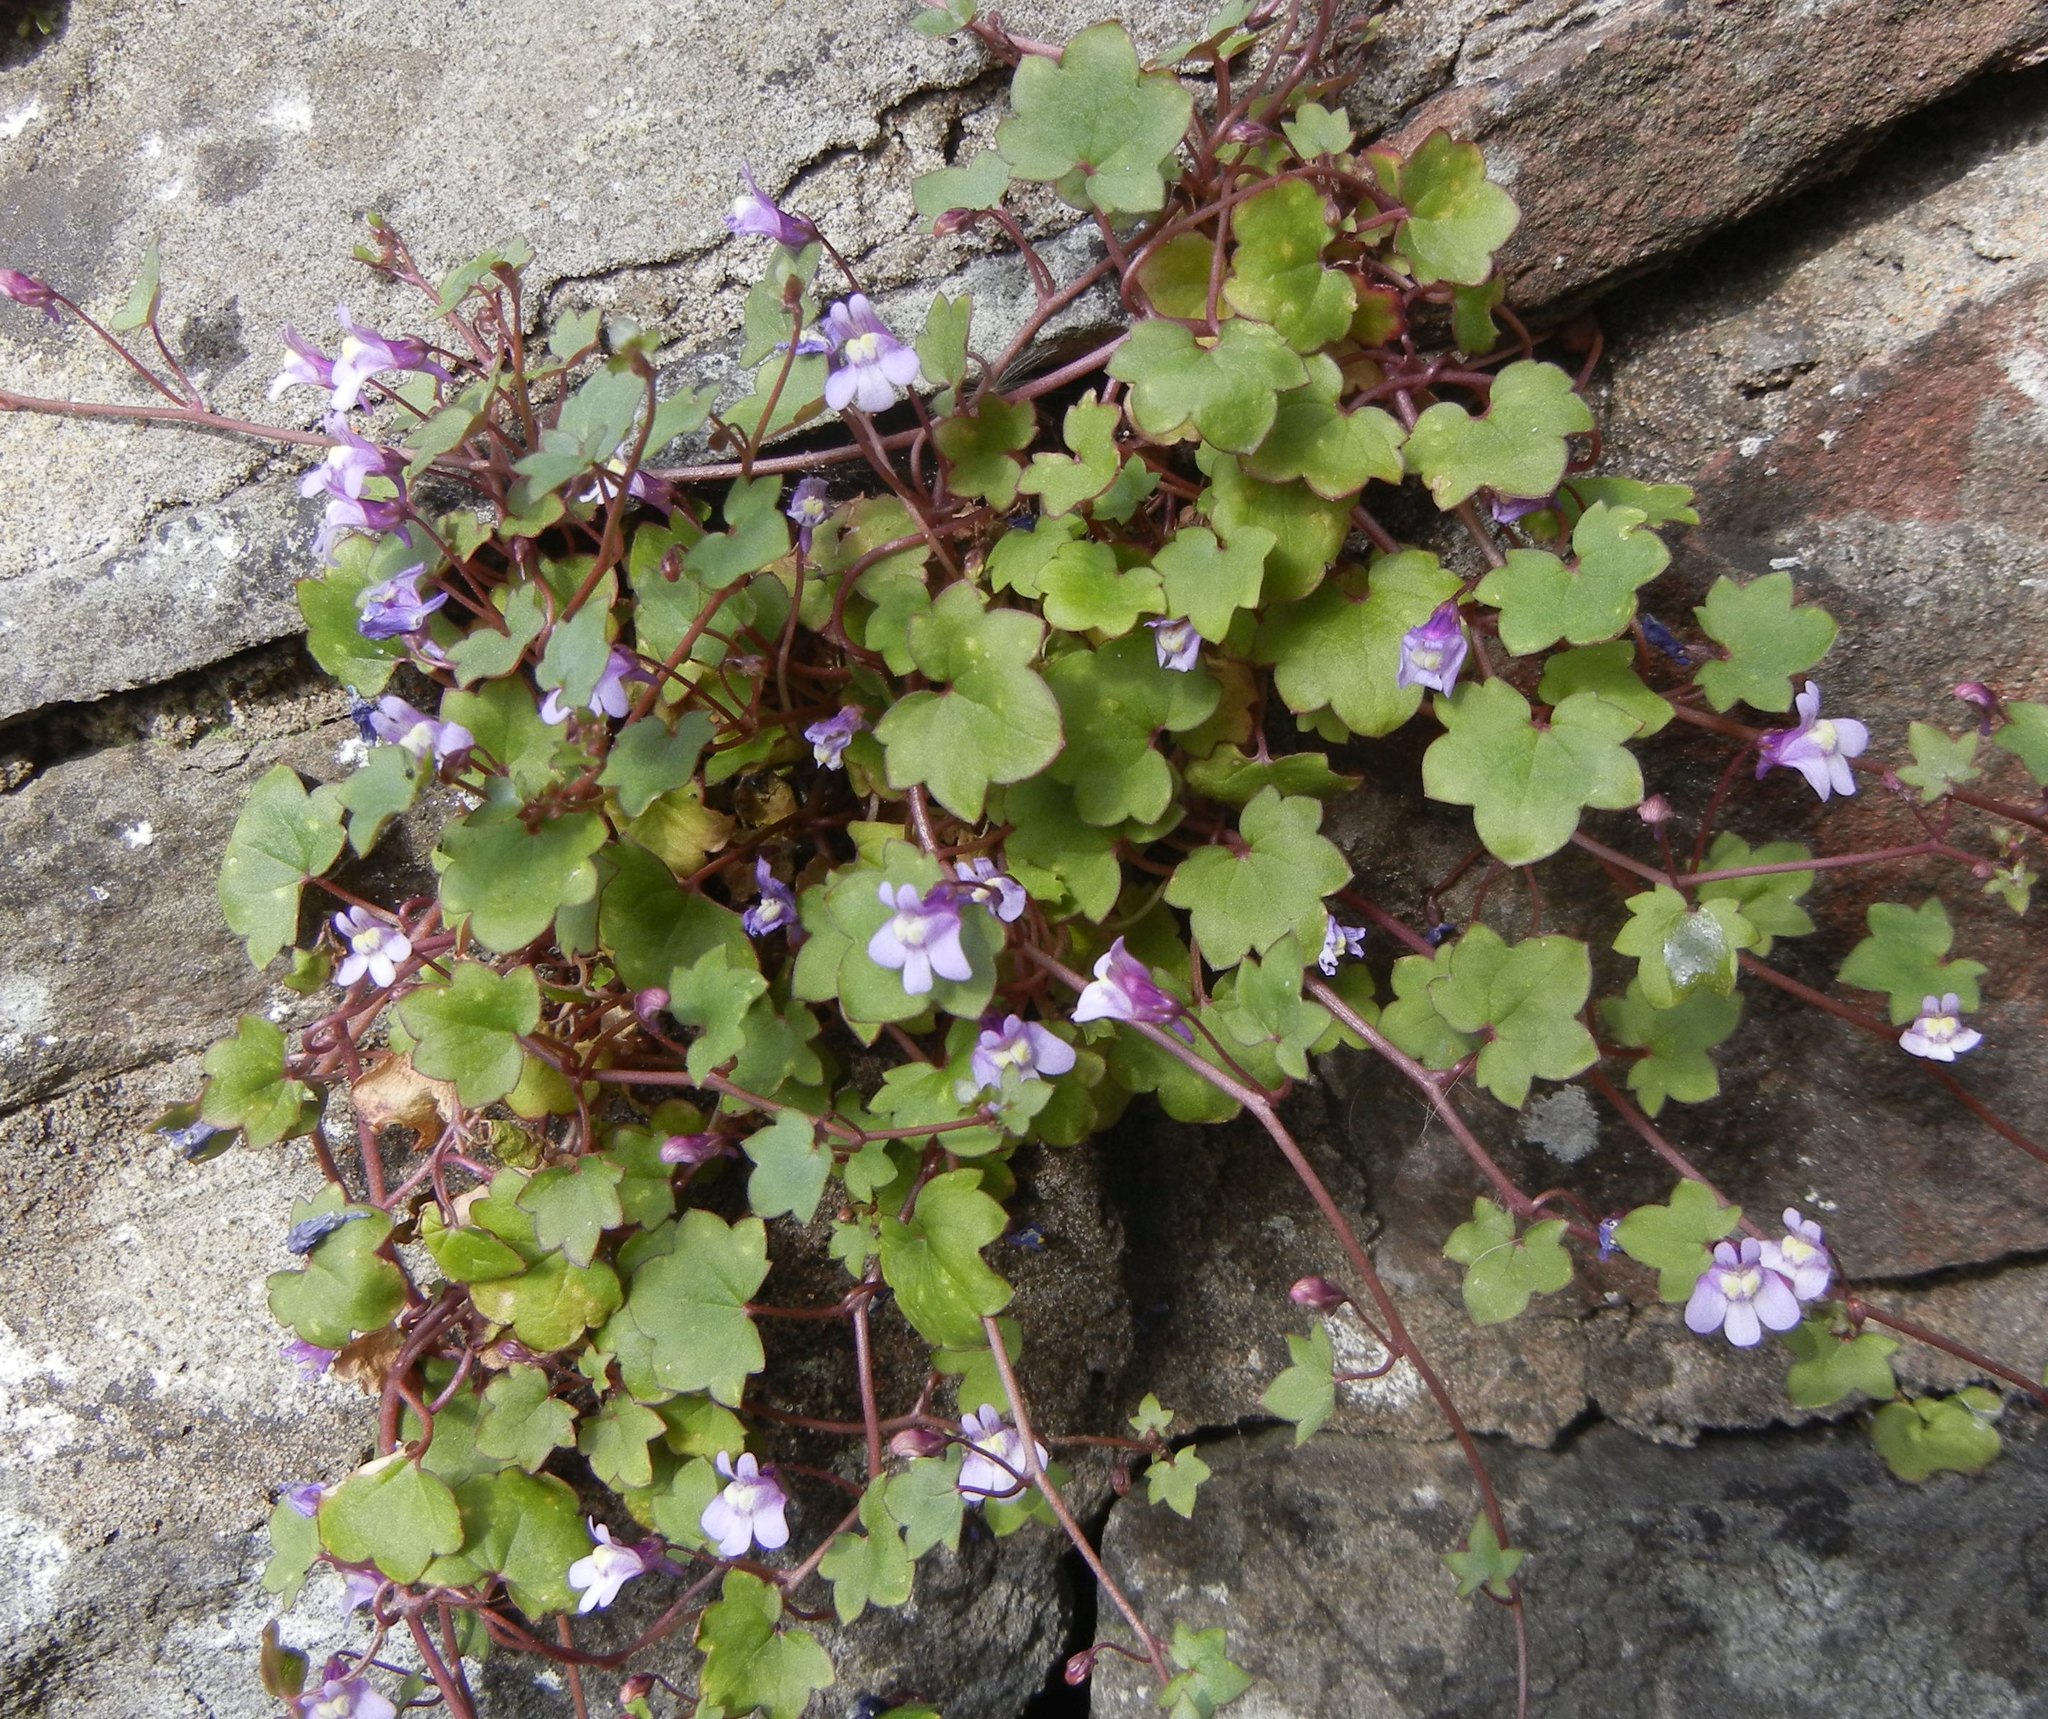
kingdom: Plantae
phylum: Tracheophyta
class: Magnoliopsida
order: Lamiales
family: Plantaginaceae
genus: Cymbalaria
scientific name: Cymbalaria muralis
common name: Ivy-leaved toadflax
